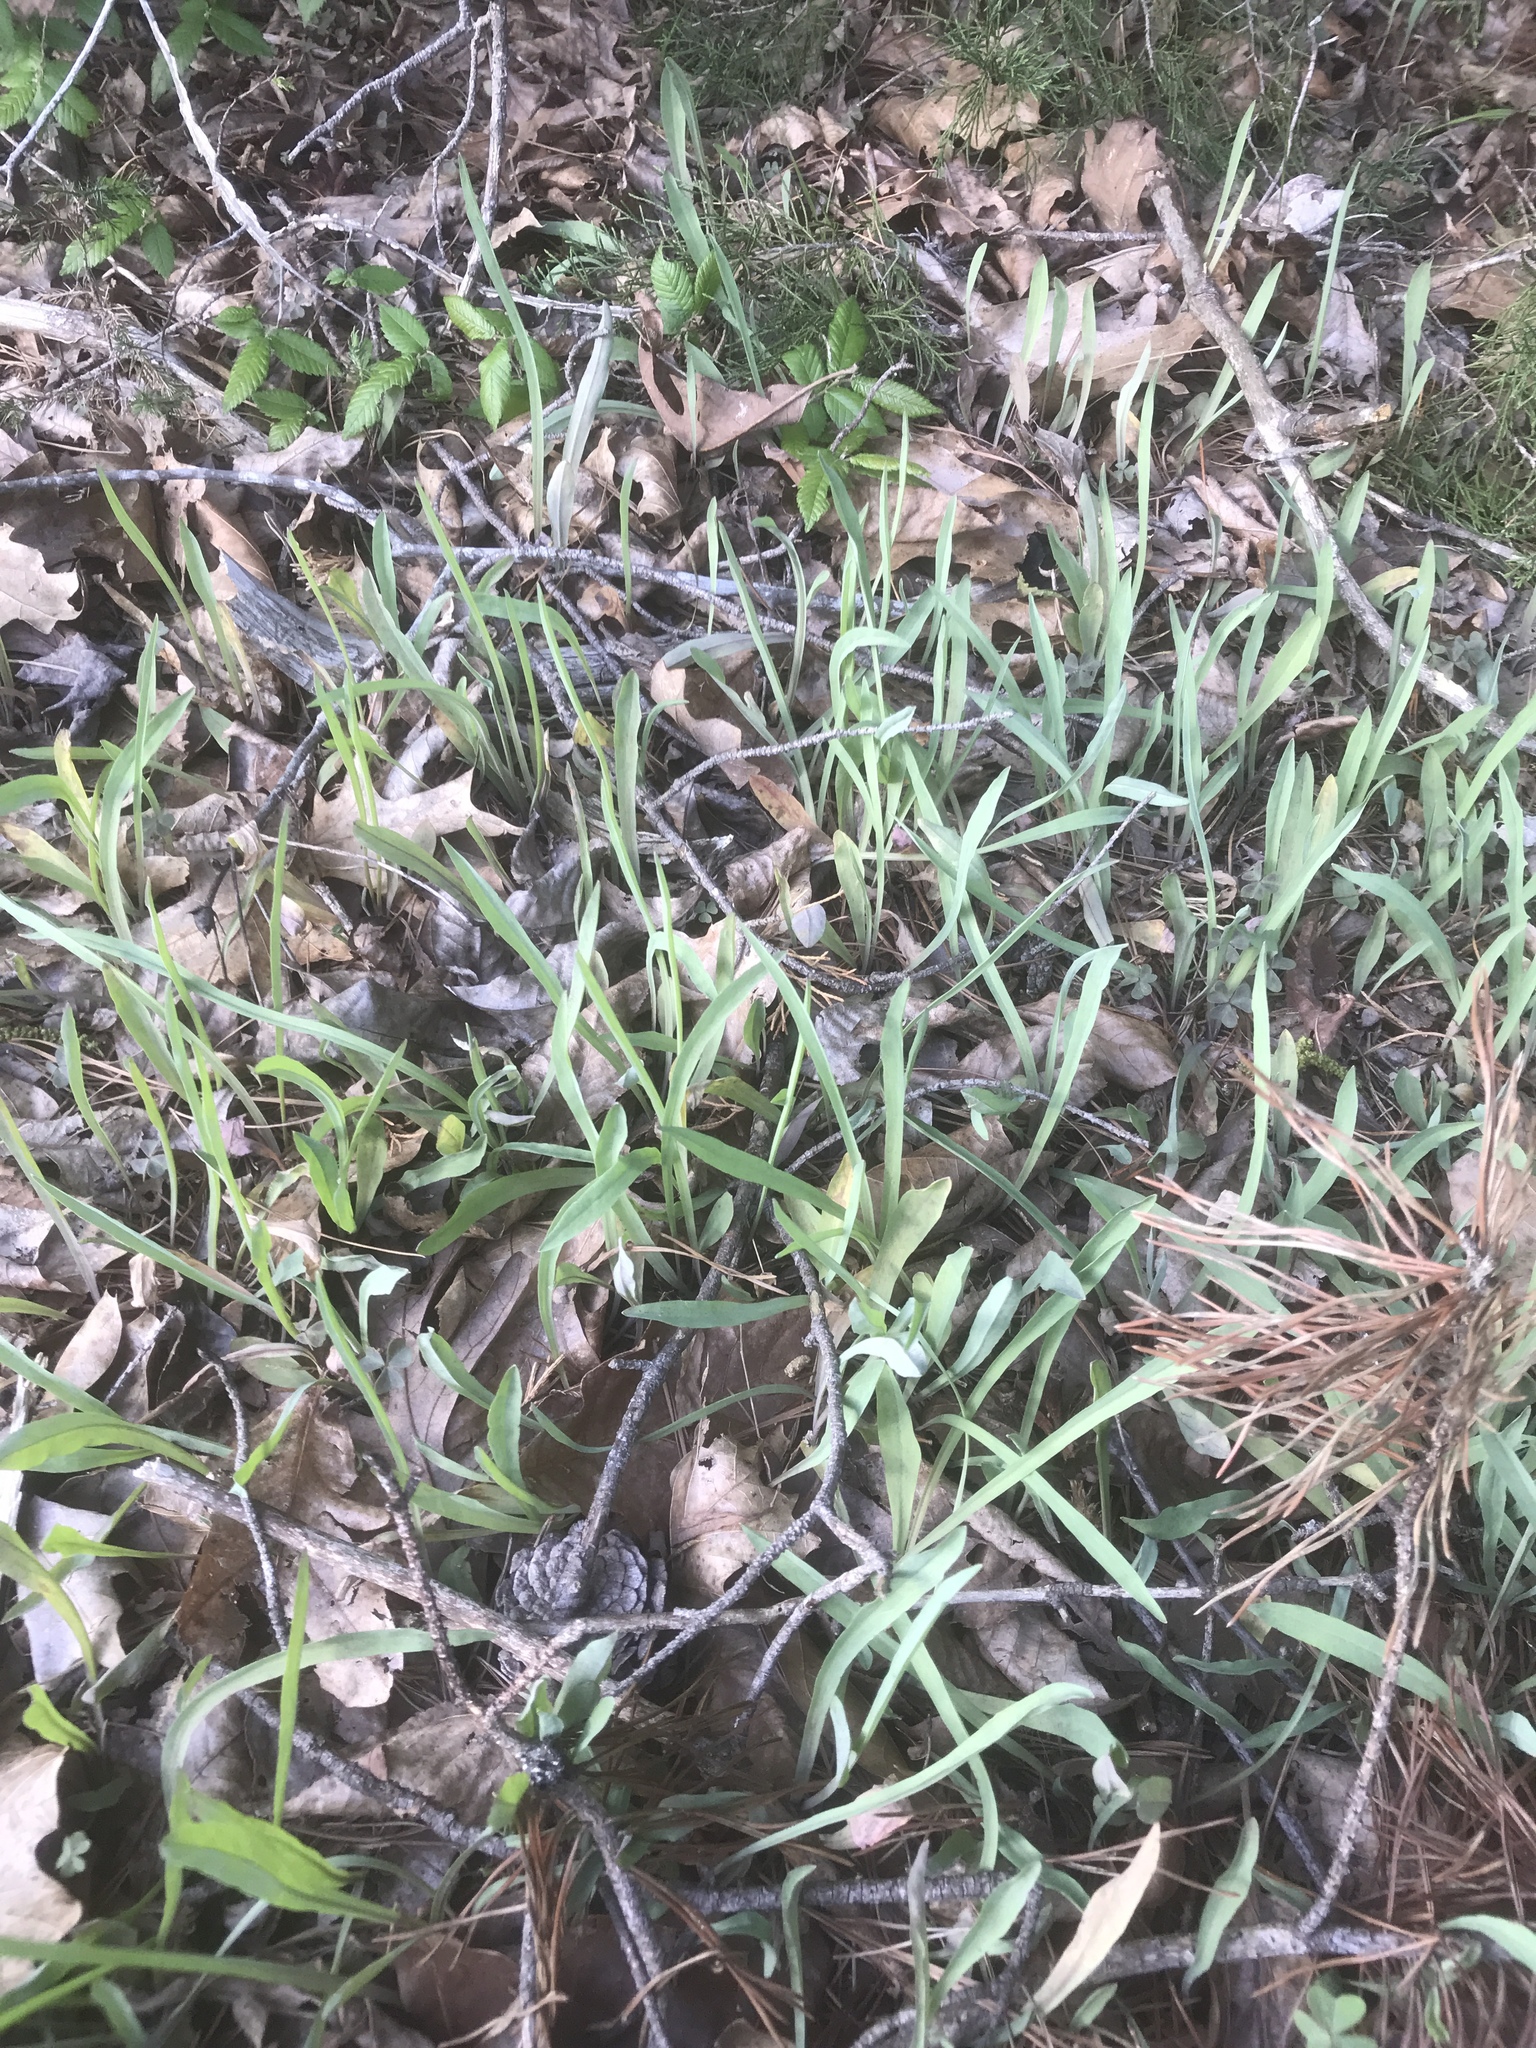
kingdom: Plantae
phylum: Tracheophyta
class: Magnoliopsida
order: Asterales
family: Asteraceae
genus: Krigia
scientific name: Krigia dandelion
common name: Colonial dwarf-dandelion
